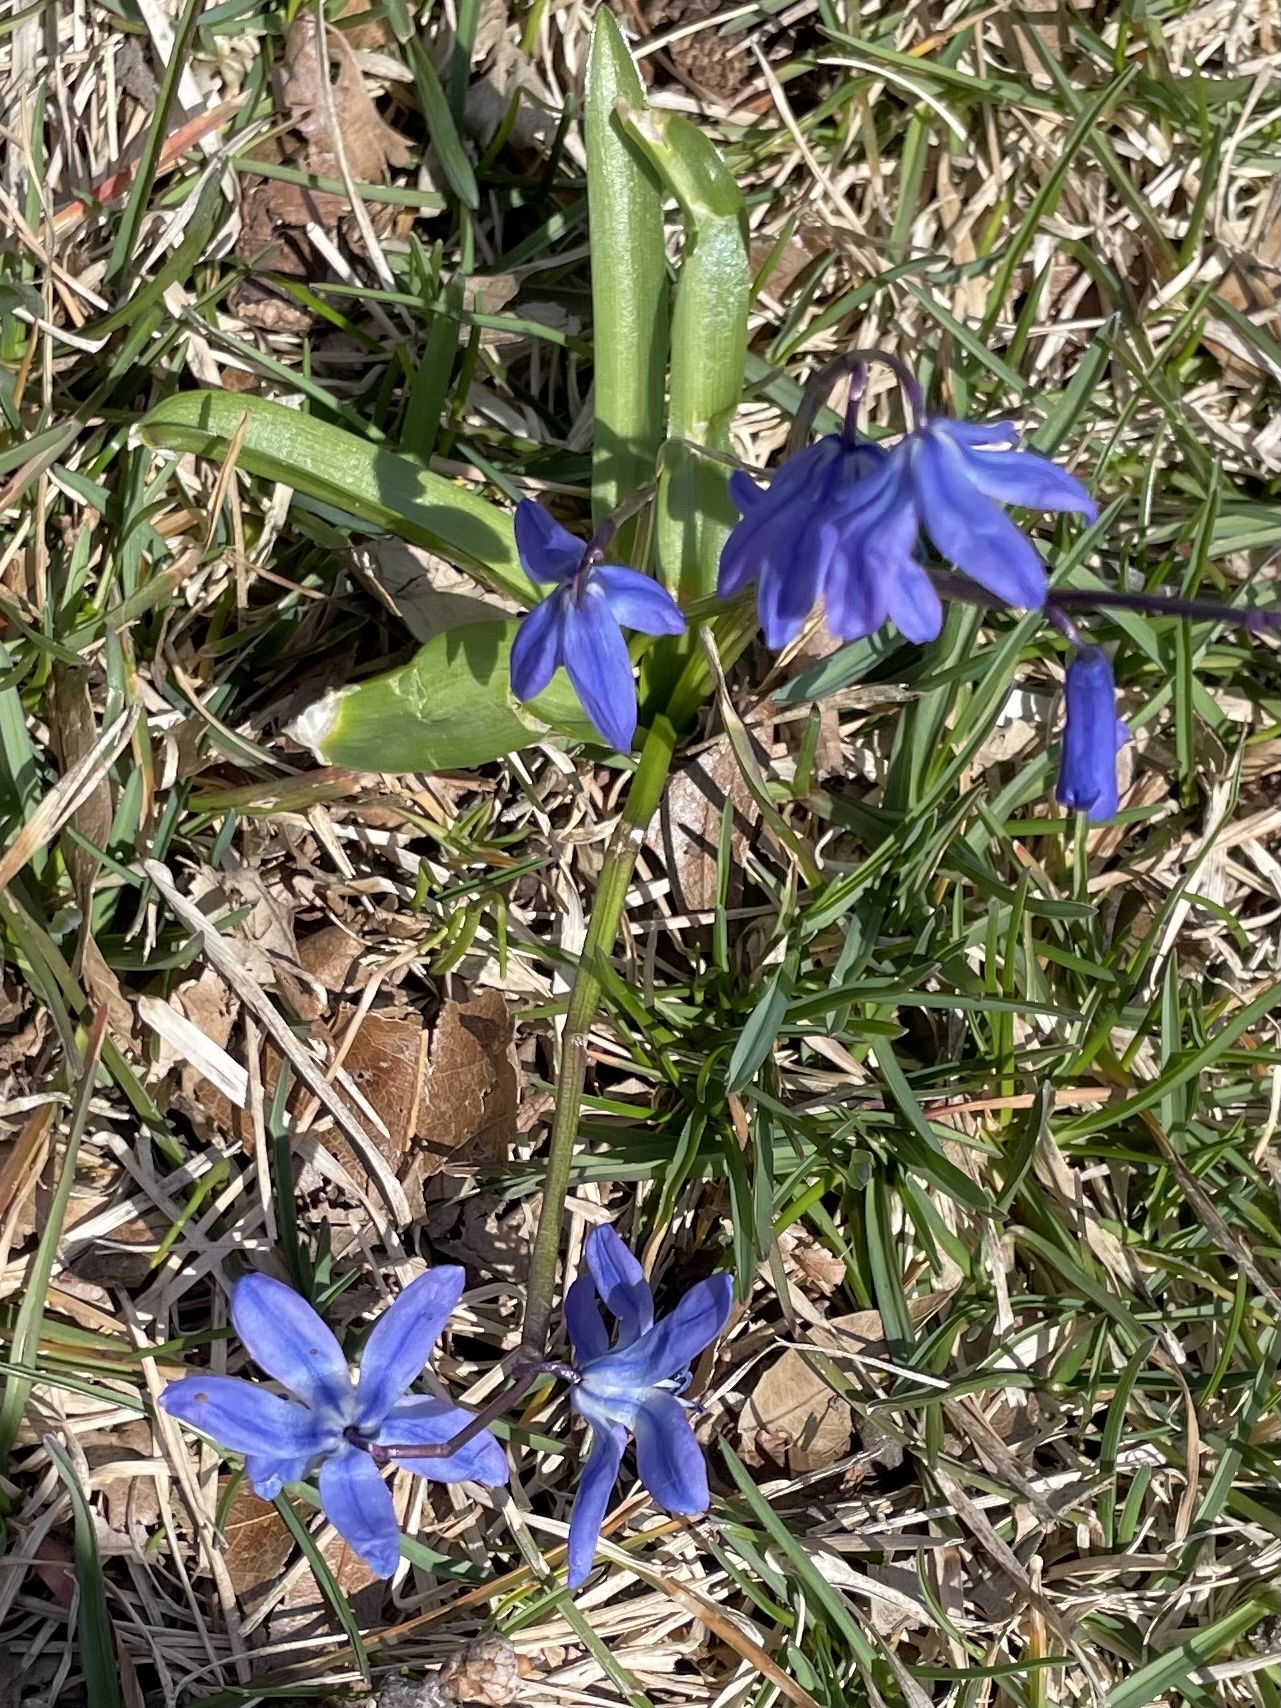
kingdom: Plantae
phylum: Tracheophyta
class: Liliopsida
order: Asparagales
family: Asparagaceae
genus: Scilla
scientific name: Scilla siberica
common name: Siberian squill
